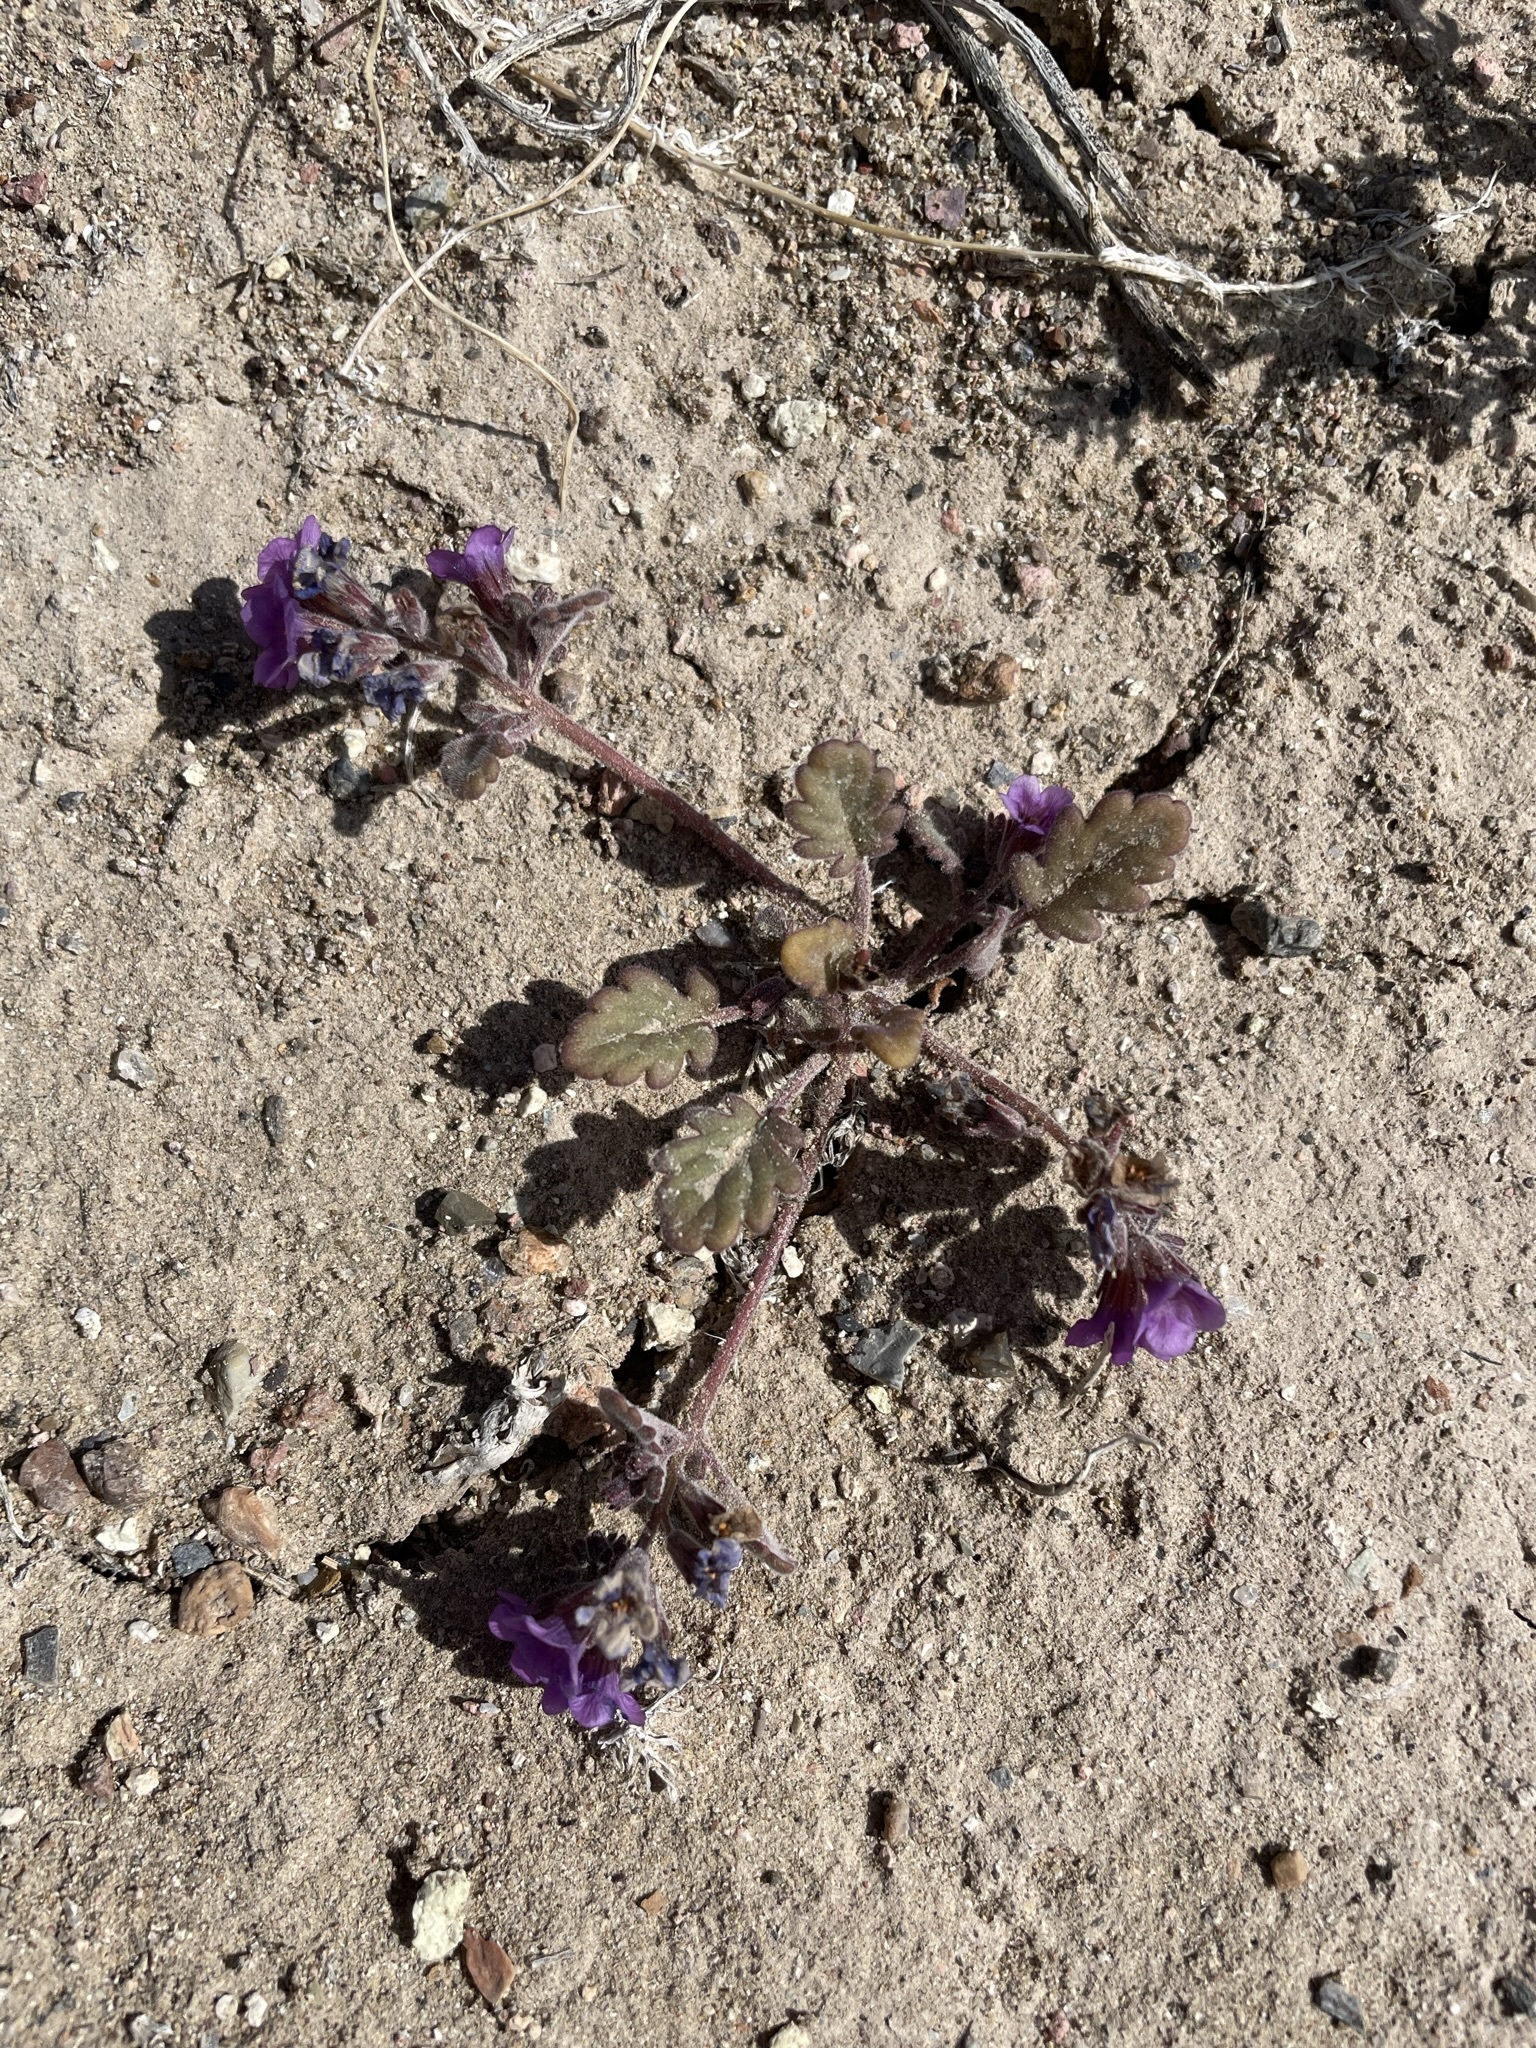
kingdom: Plantae
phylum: Tracheophyta
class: Magnoliopsida
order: Boraginales
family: Hydrophyllaceae
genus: Phacelia
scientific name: Phacelia gymnoclada
